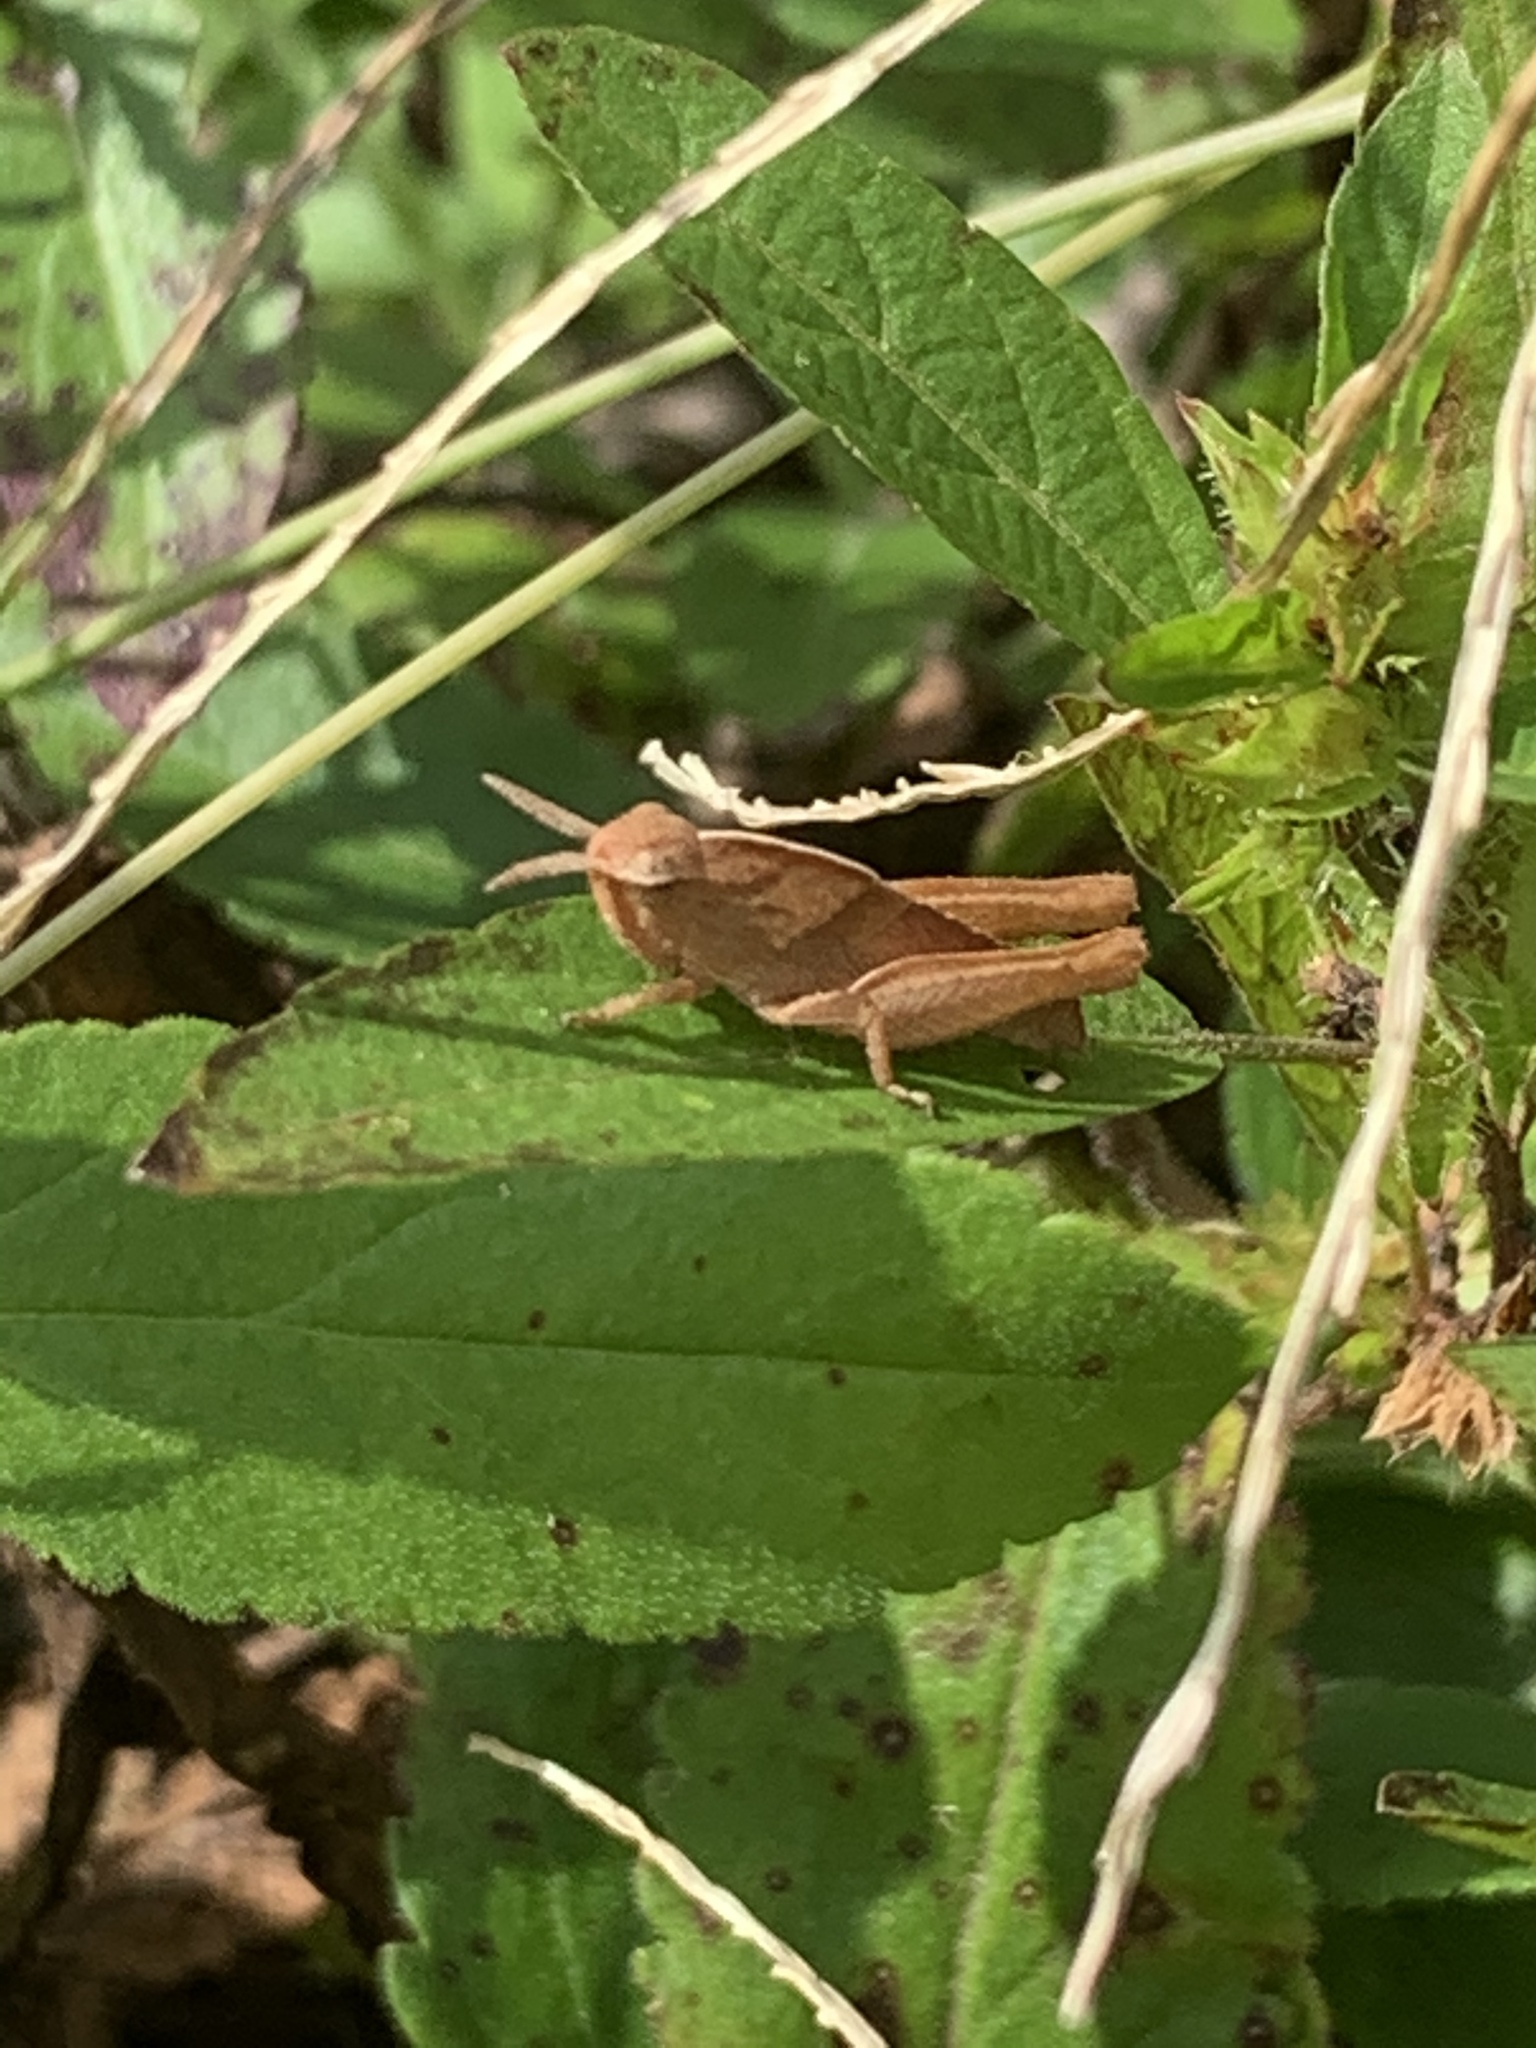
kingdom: Animalia
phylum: Arthropoda
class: Insecta
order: Orthoptera
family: Acrididae
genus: Chortophaga
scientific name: Chortophaga viridifasciata
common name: Green-striped grasshopper
